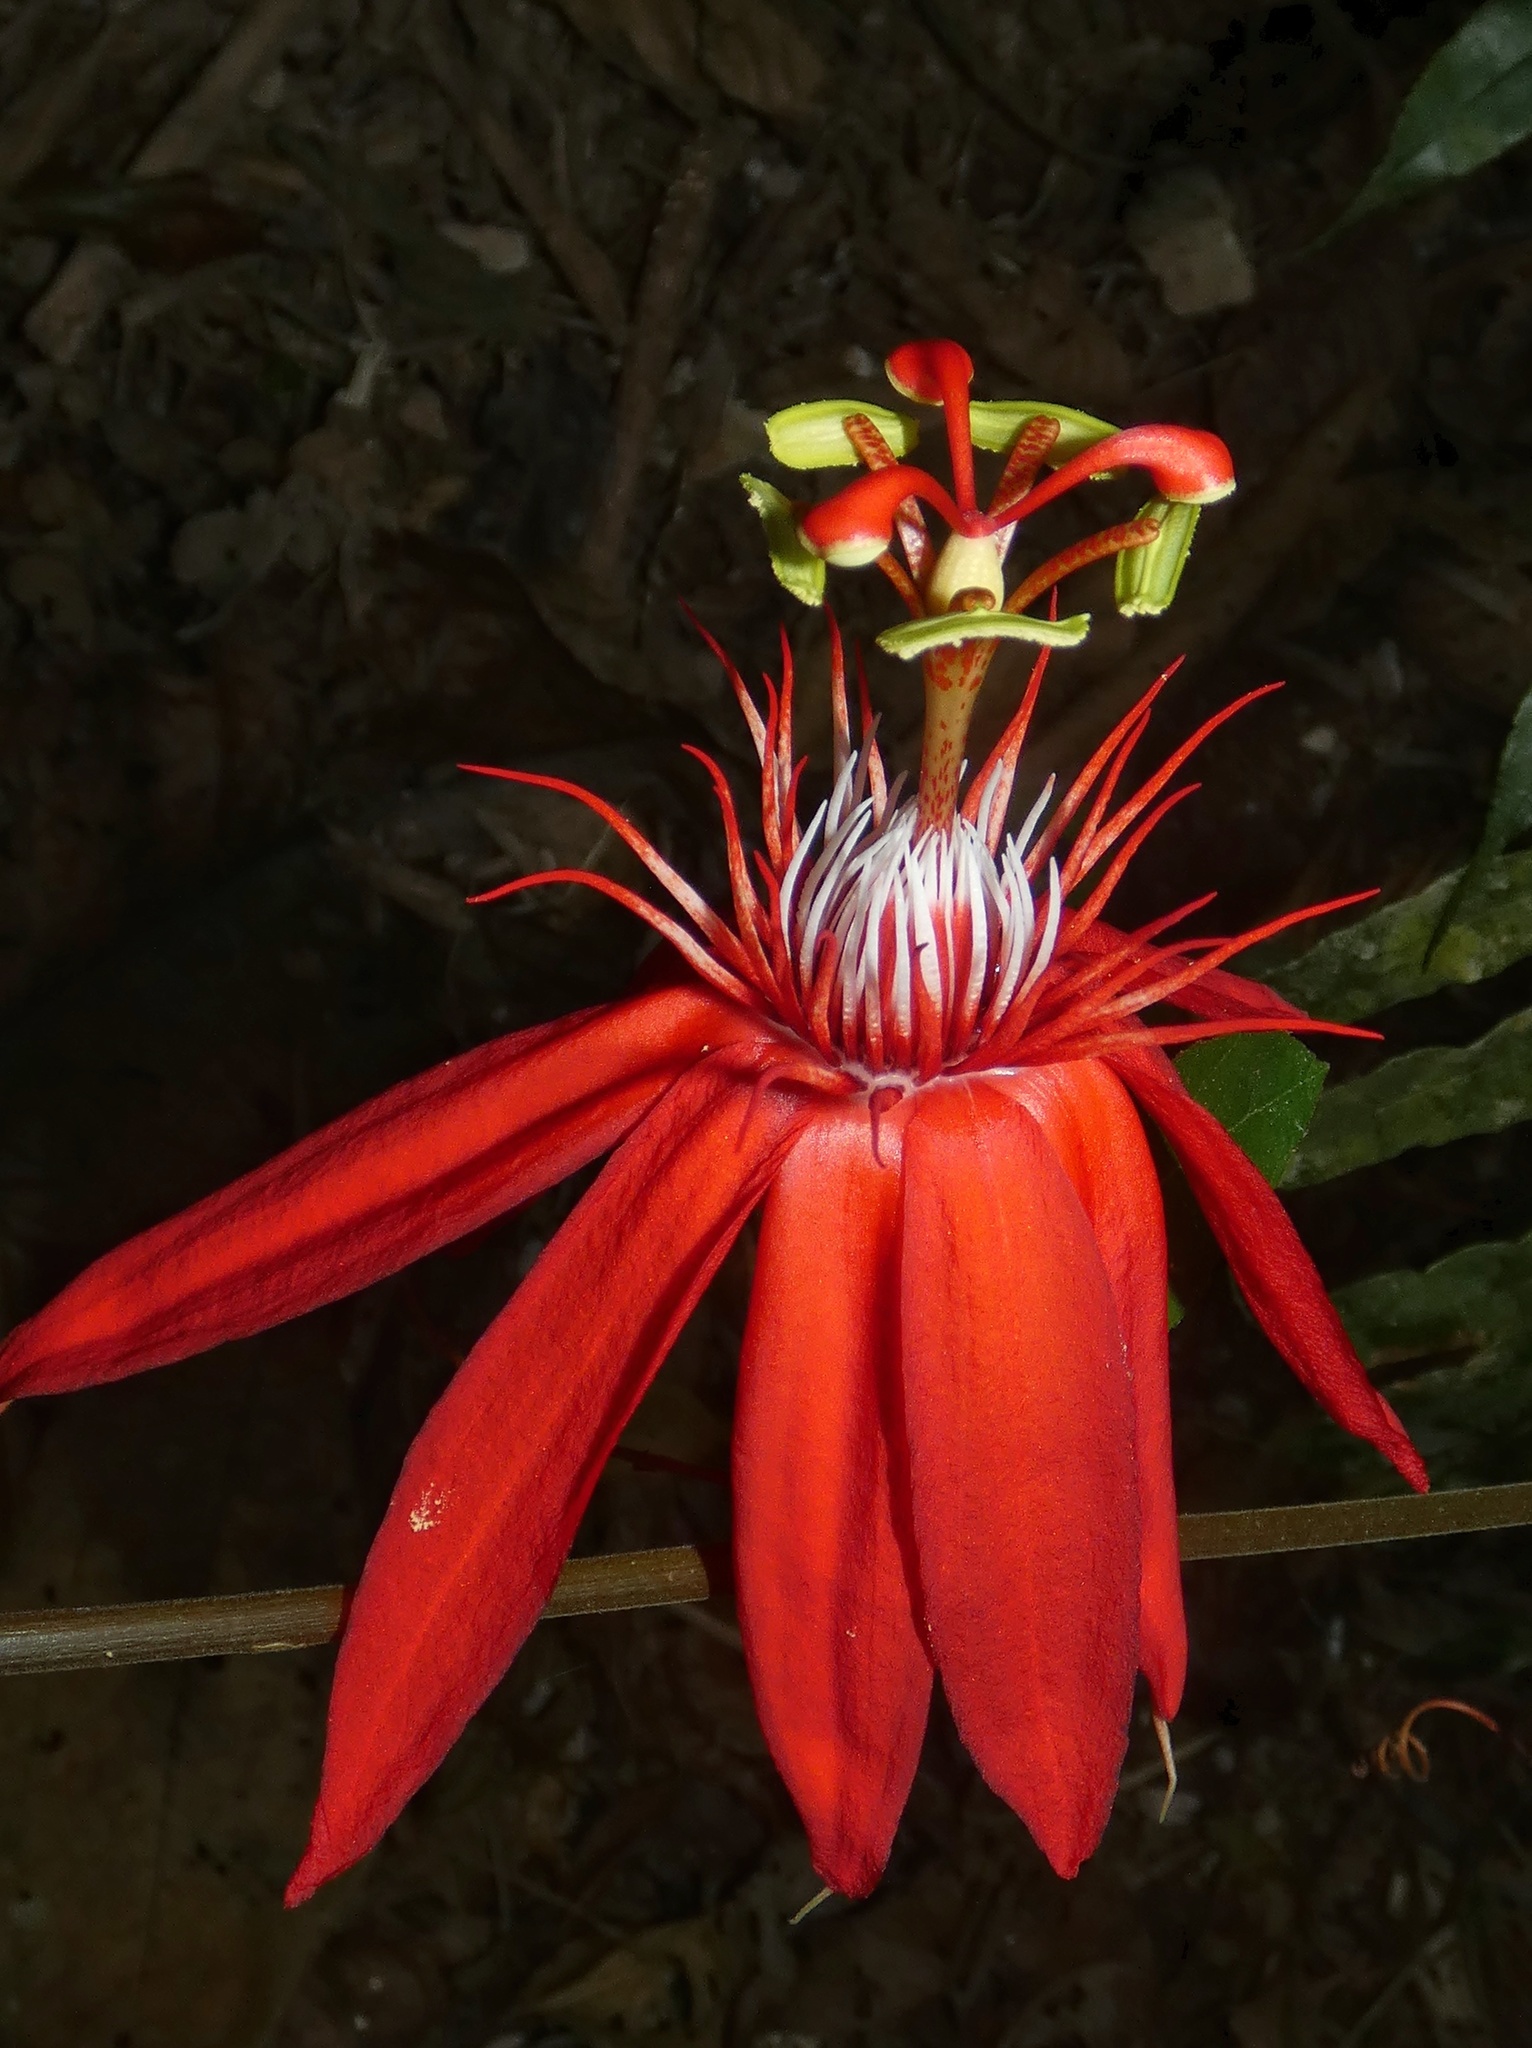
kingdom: Plantae
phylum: Tracheophyta
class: Magnoliopsida
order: Malpighiales
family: Passifloraceae
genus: Passiflora
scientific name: Passiflora vitifolia
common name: Perfumed passionflower
